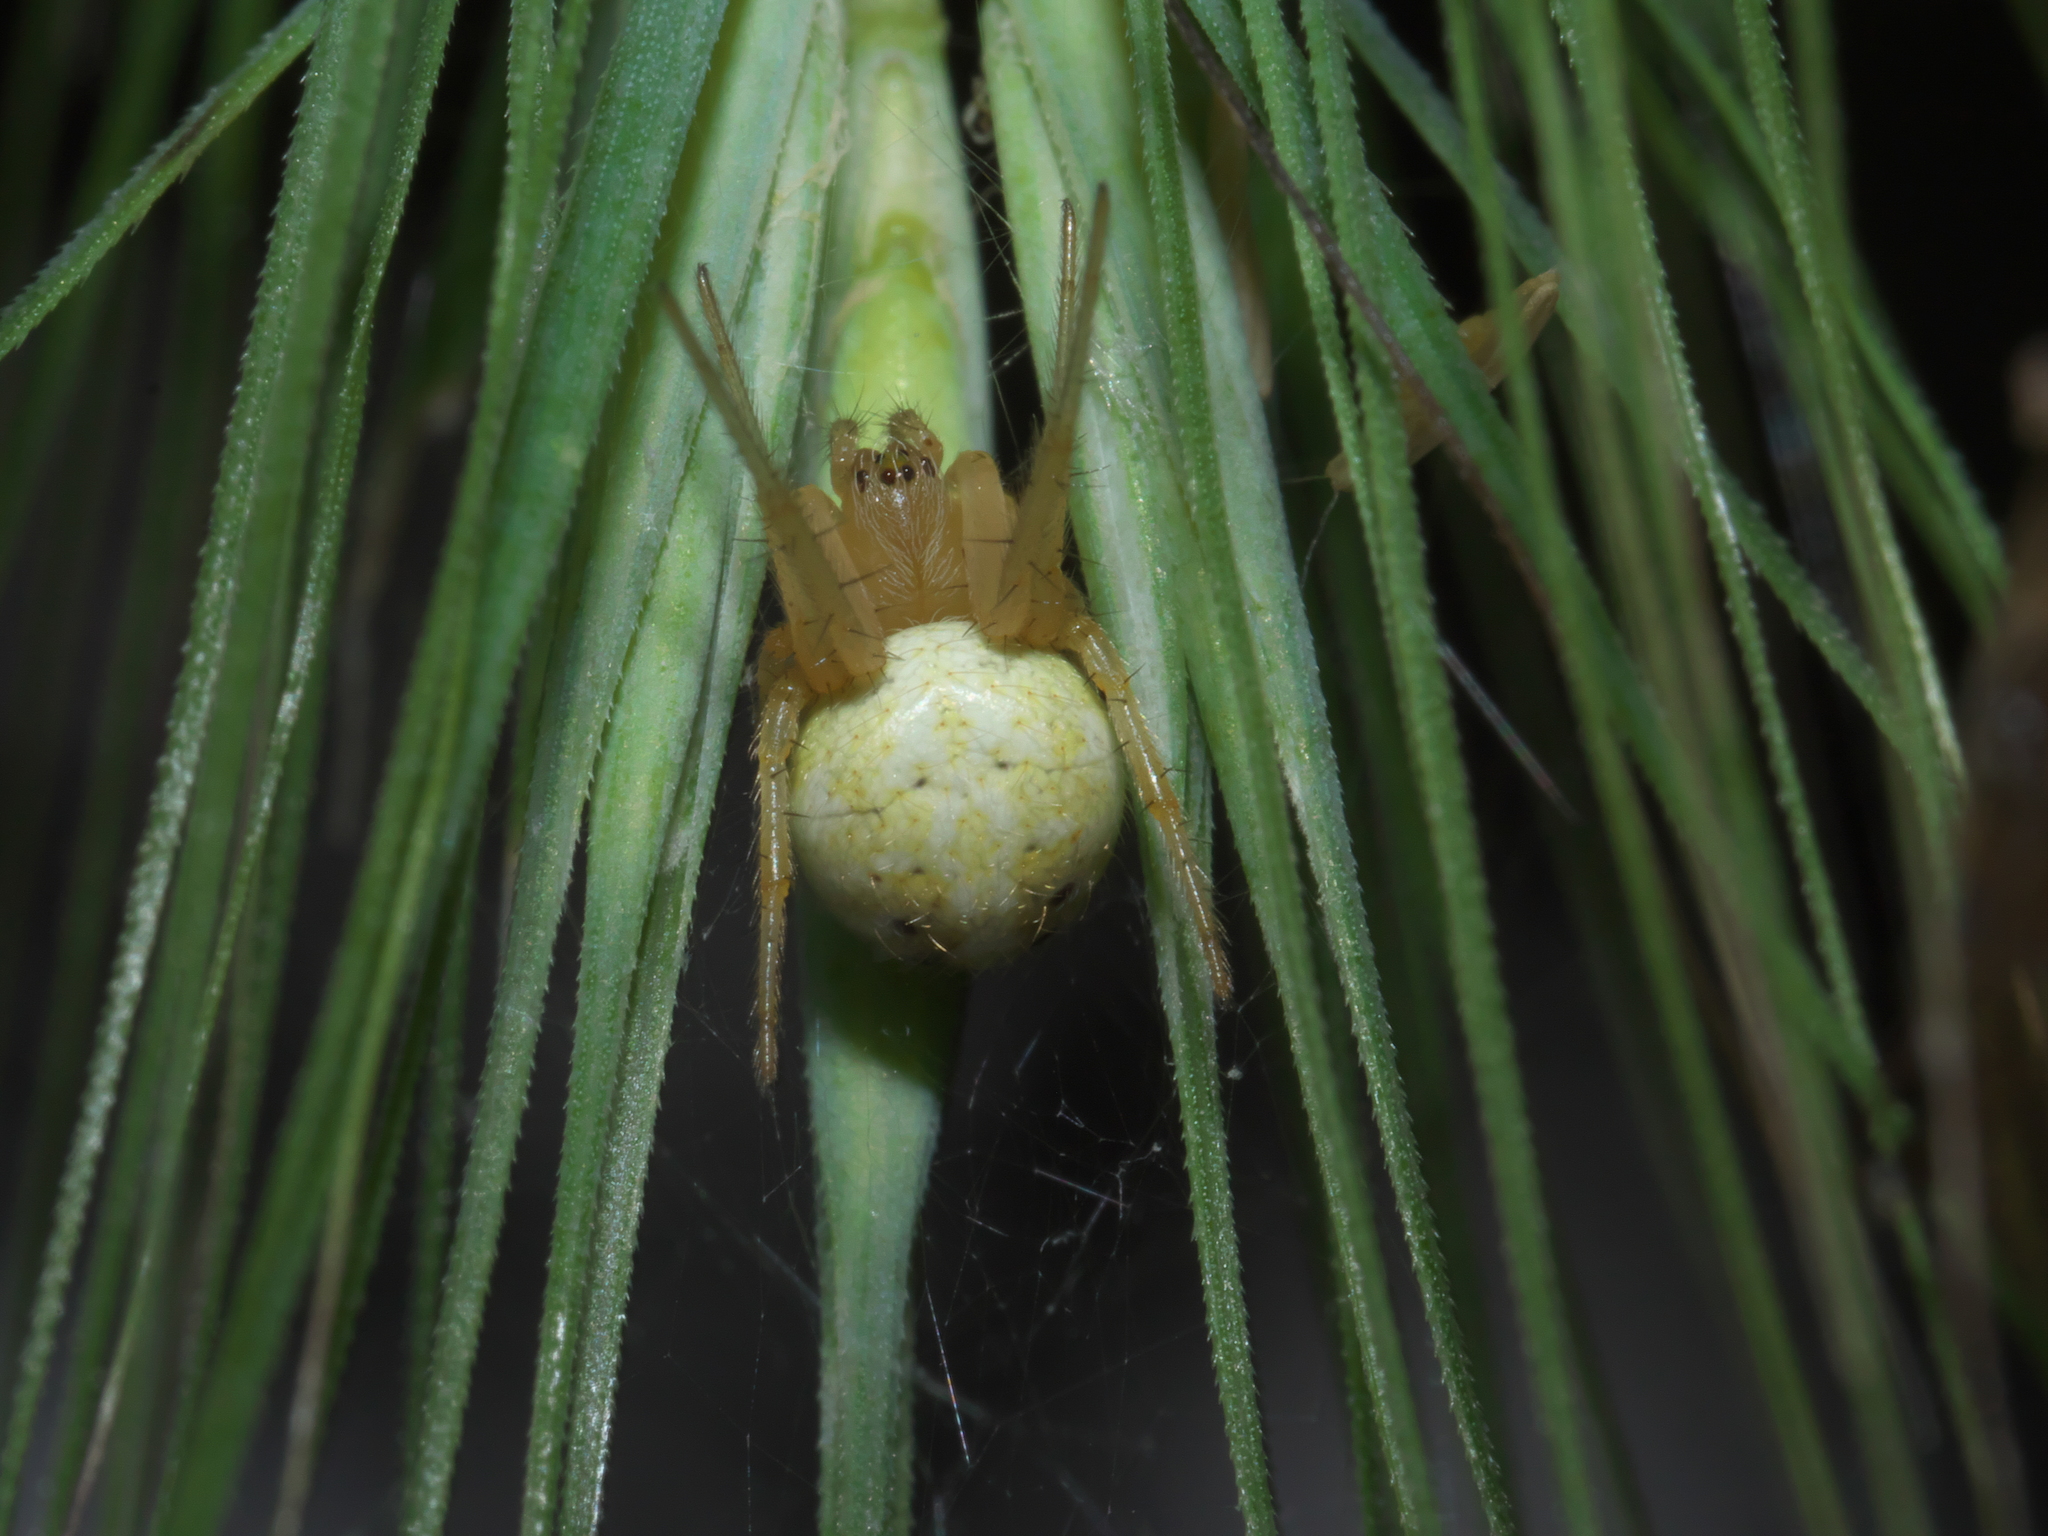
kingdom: Animalia
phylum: Arthropoda
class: Arachnida
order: Araneae
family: Araneidae
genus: Araniella
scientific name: Araniella displicata
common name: Sixspotted orb weaver
